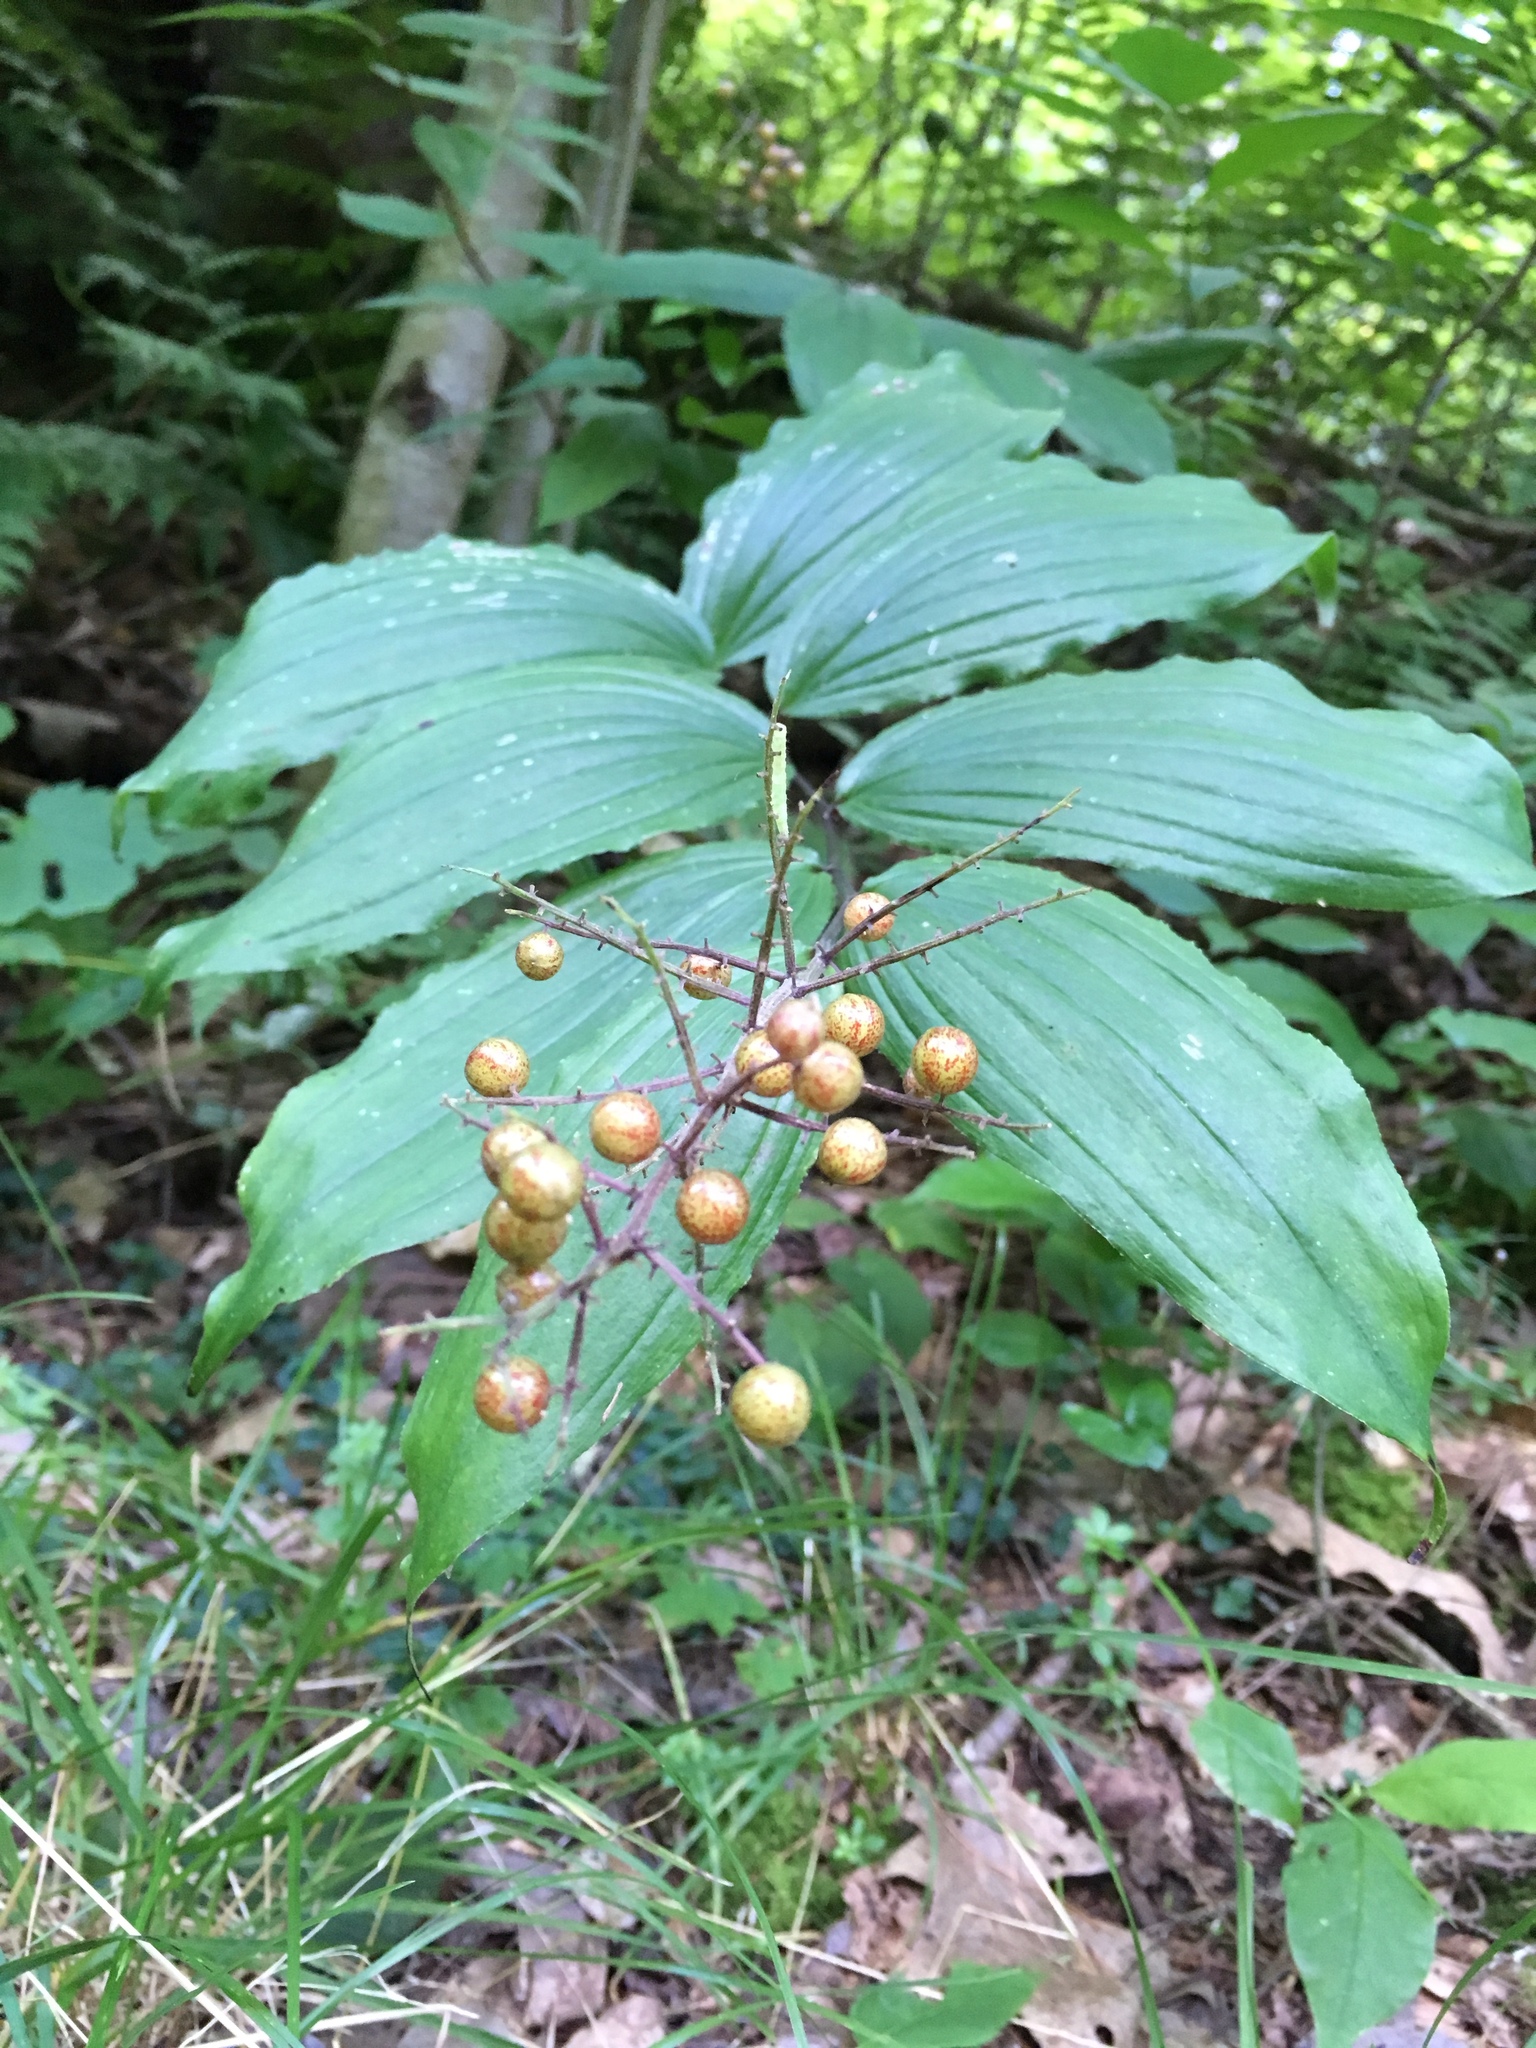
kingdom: Plantae
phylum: Tracheophyta
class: Liliopsida
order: Asparagales
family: Asparagaceae
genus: Maianthemum
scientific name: Maianthemum racemosum
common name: False spikenard
